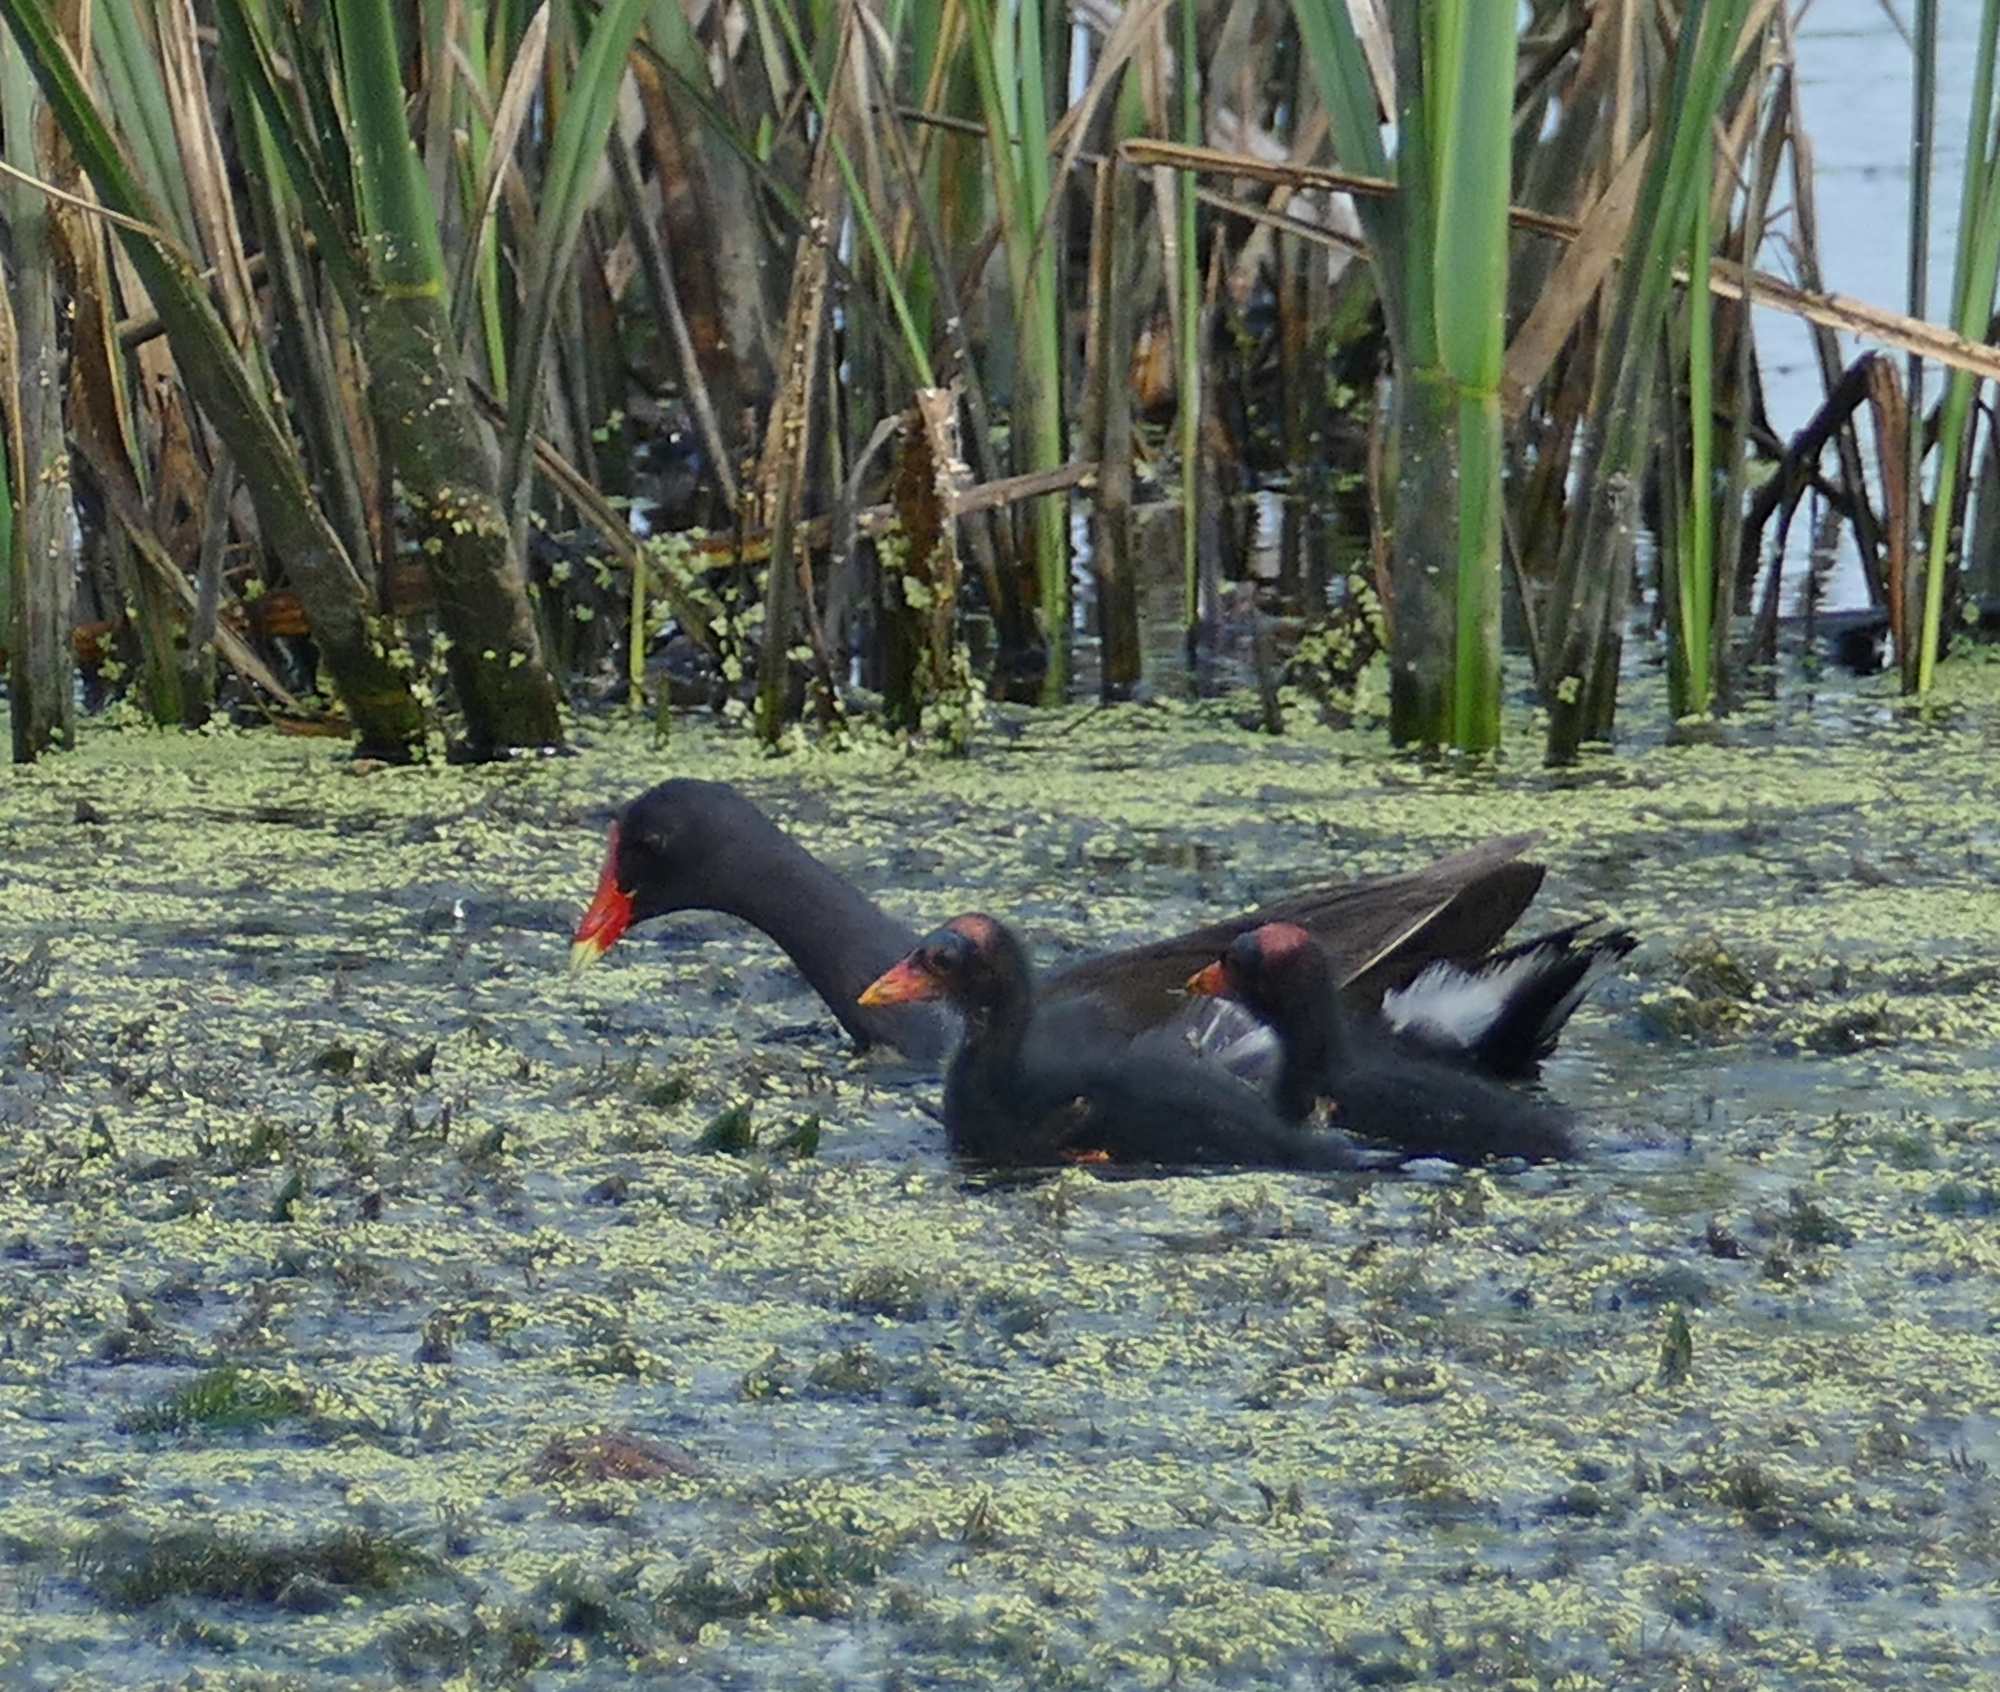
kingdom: Animalia
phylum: Chordata
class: Aves
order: Gruiformes
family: Rallidae
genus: Gallinula
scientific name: Gallinula chloropus
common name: Common moorhen
